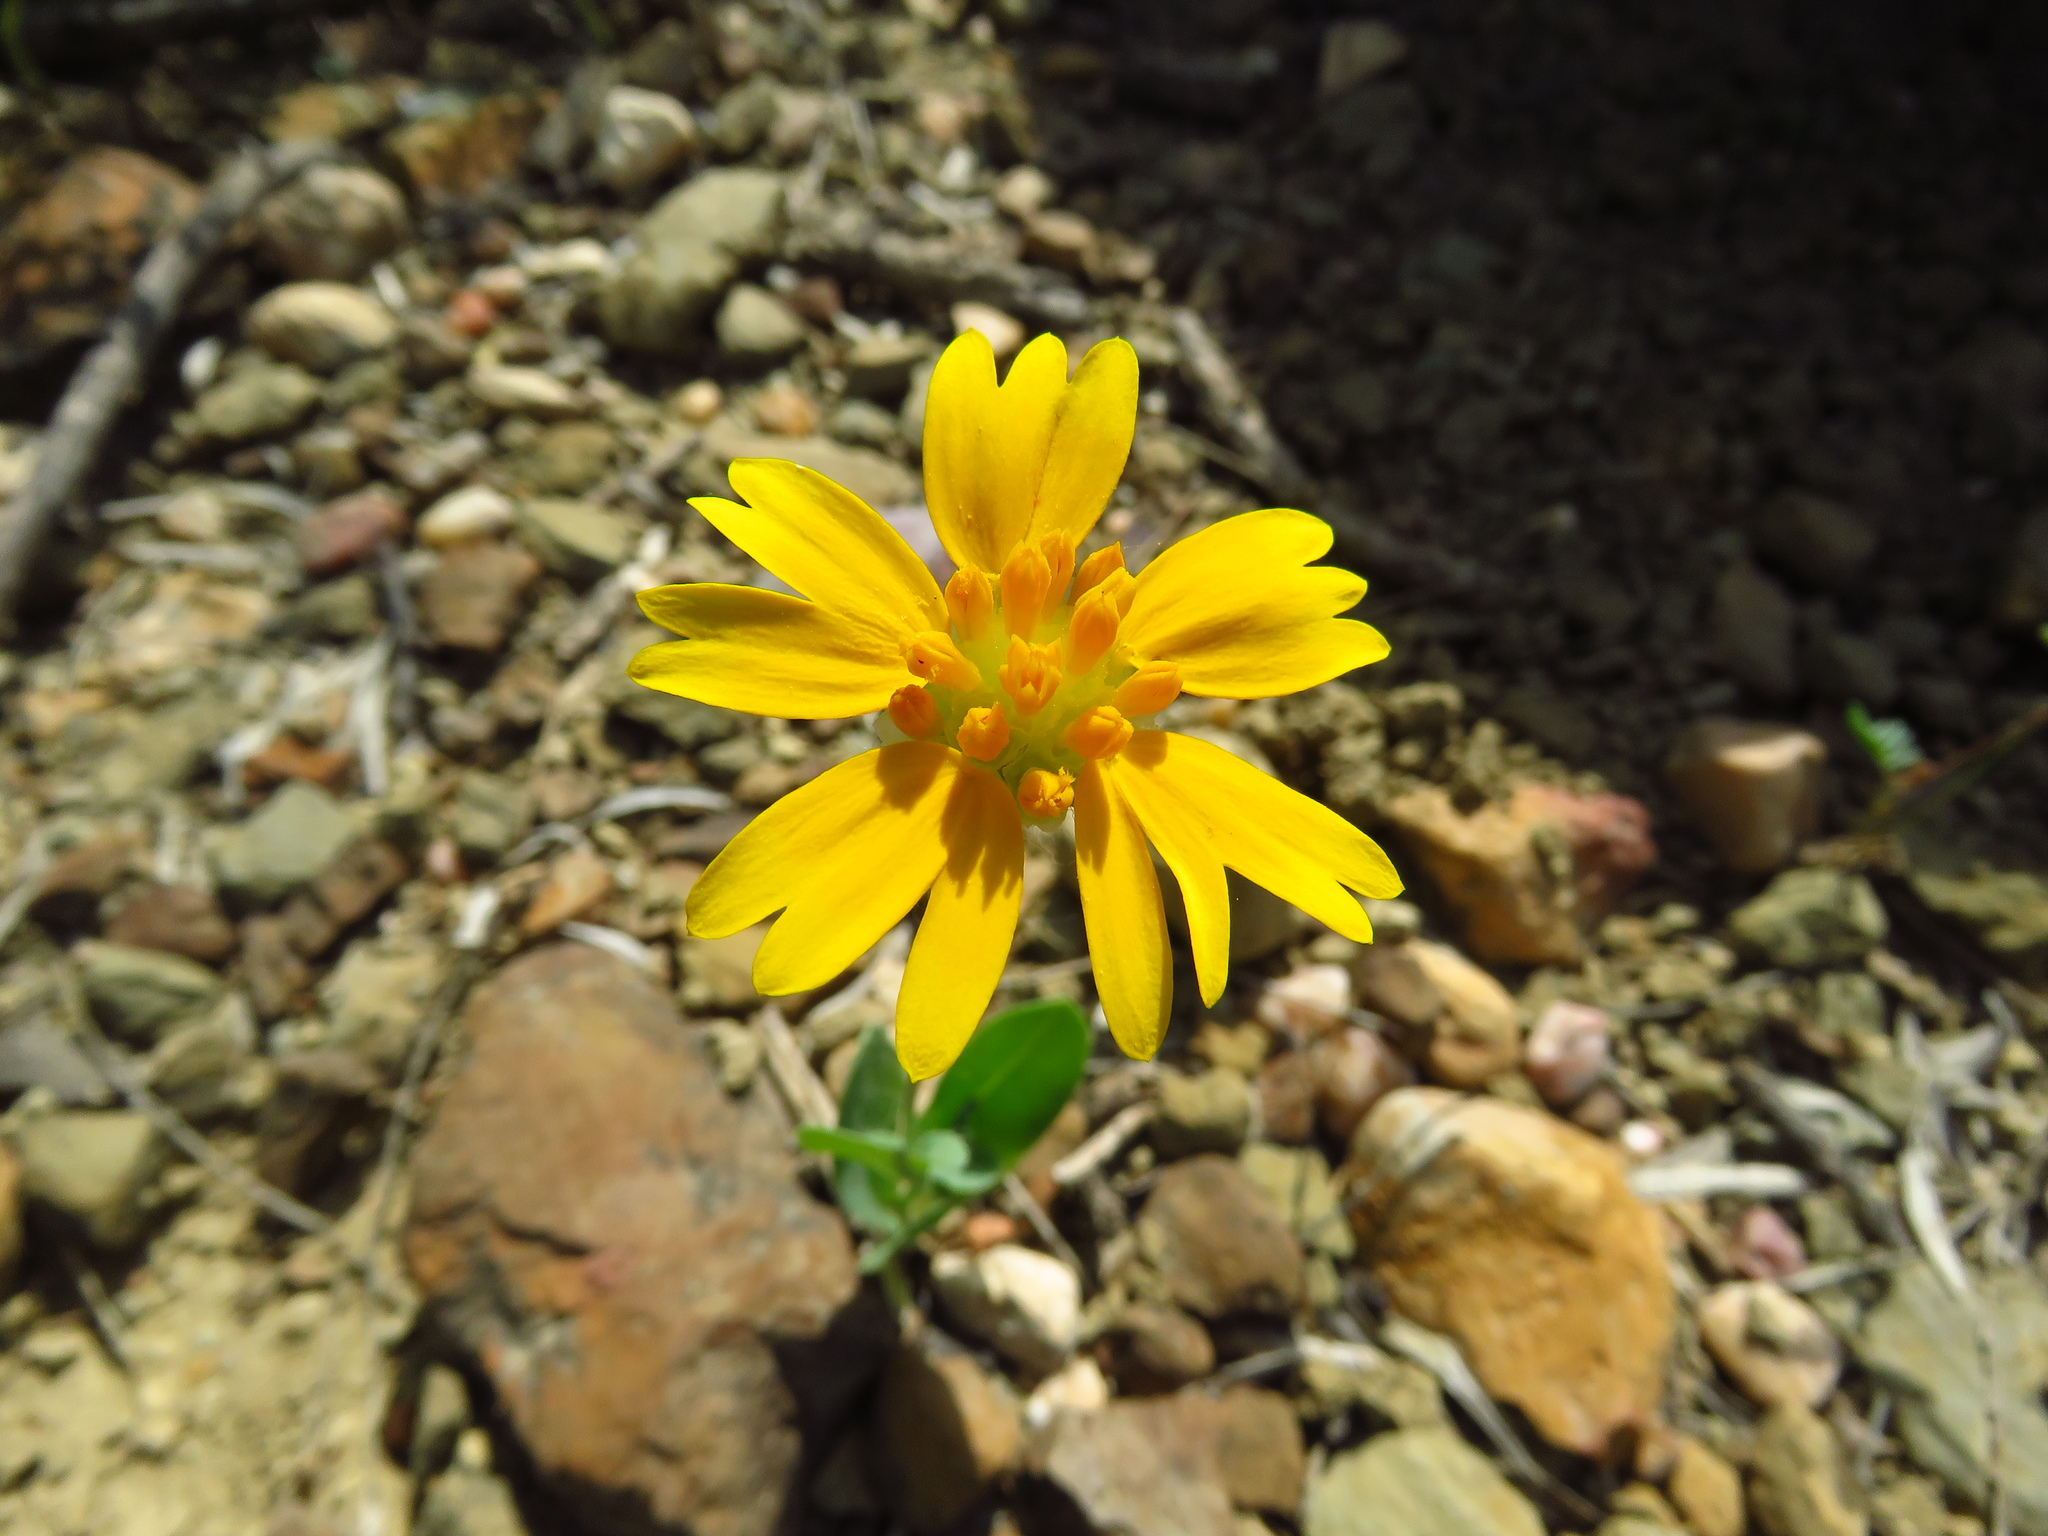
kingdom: Plantae
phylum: Tracheophyta
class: Magnoliopsida
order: Asterales
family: Asteraceae
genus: Amblyolepis
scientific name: Amblyolepis setigera
